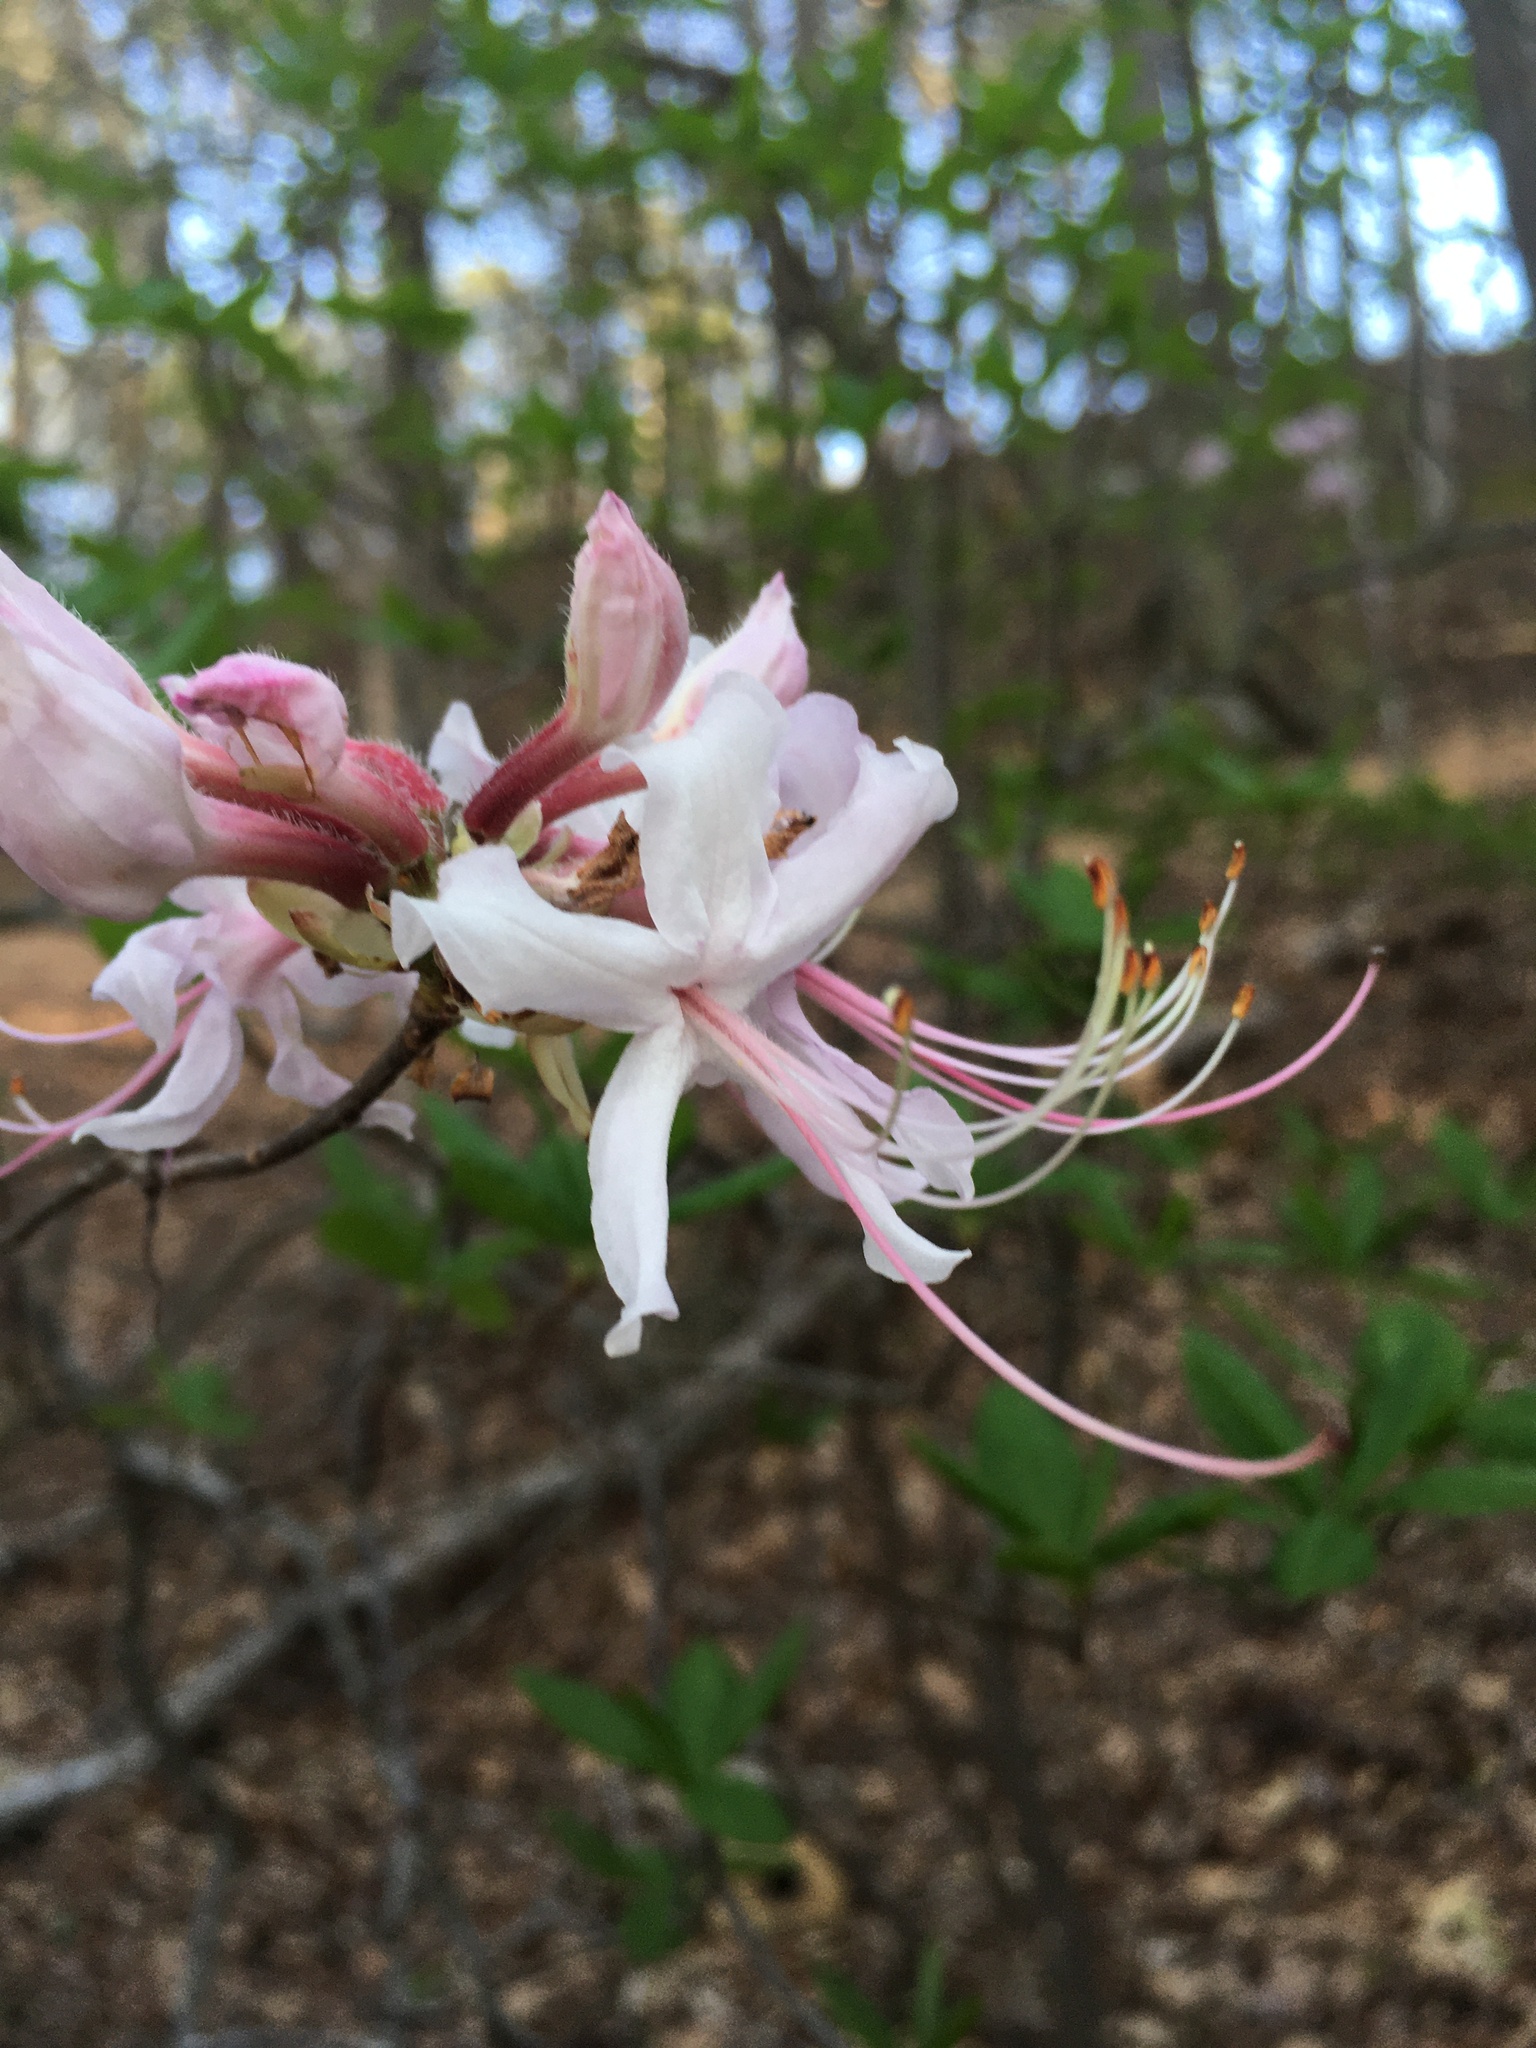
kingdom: Plantae
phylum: Tracheophyta
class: Magnoliopsida
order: Ericales
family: Ericaceae
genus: Rhododendron
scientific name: Rhododendron periclymenoides
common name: Election-pink
